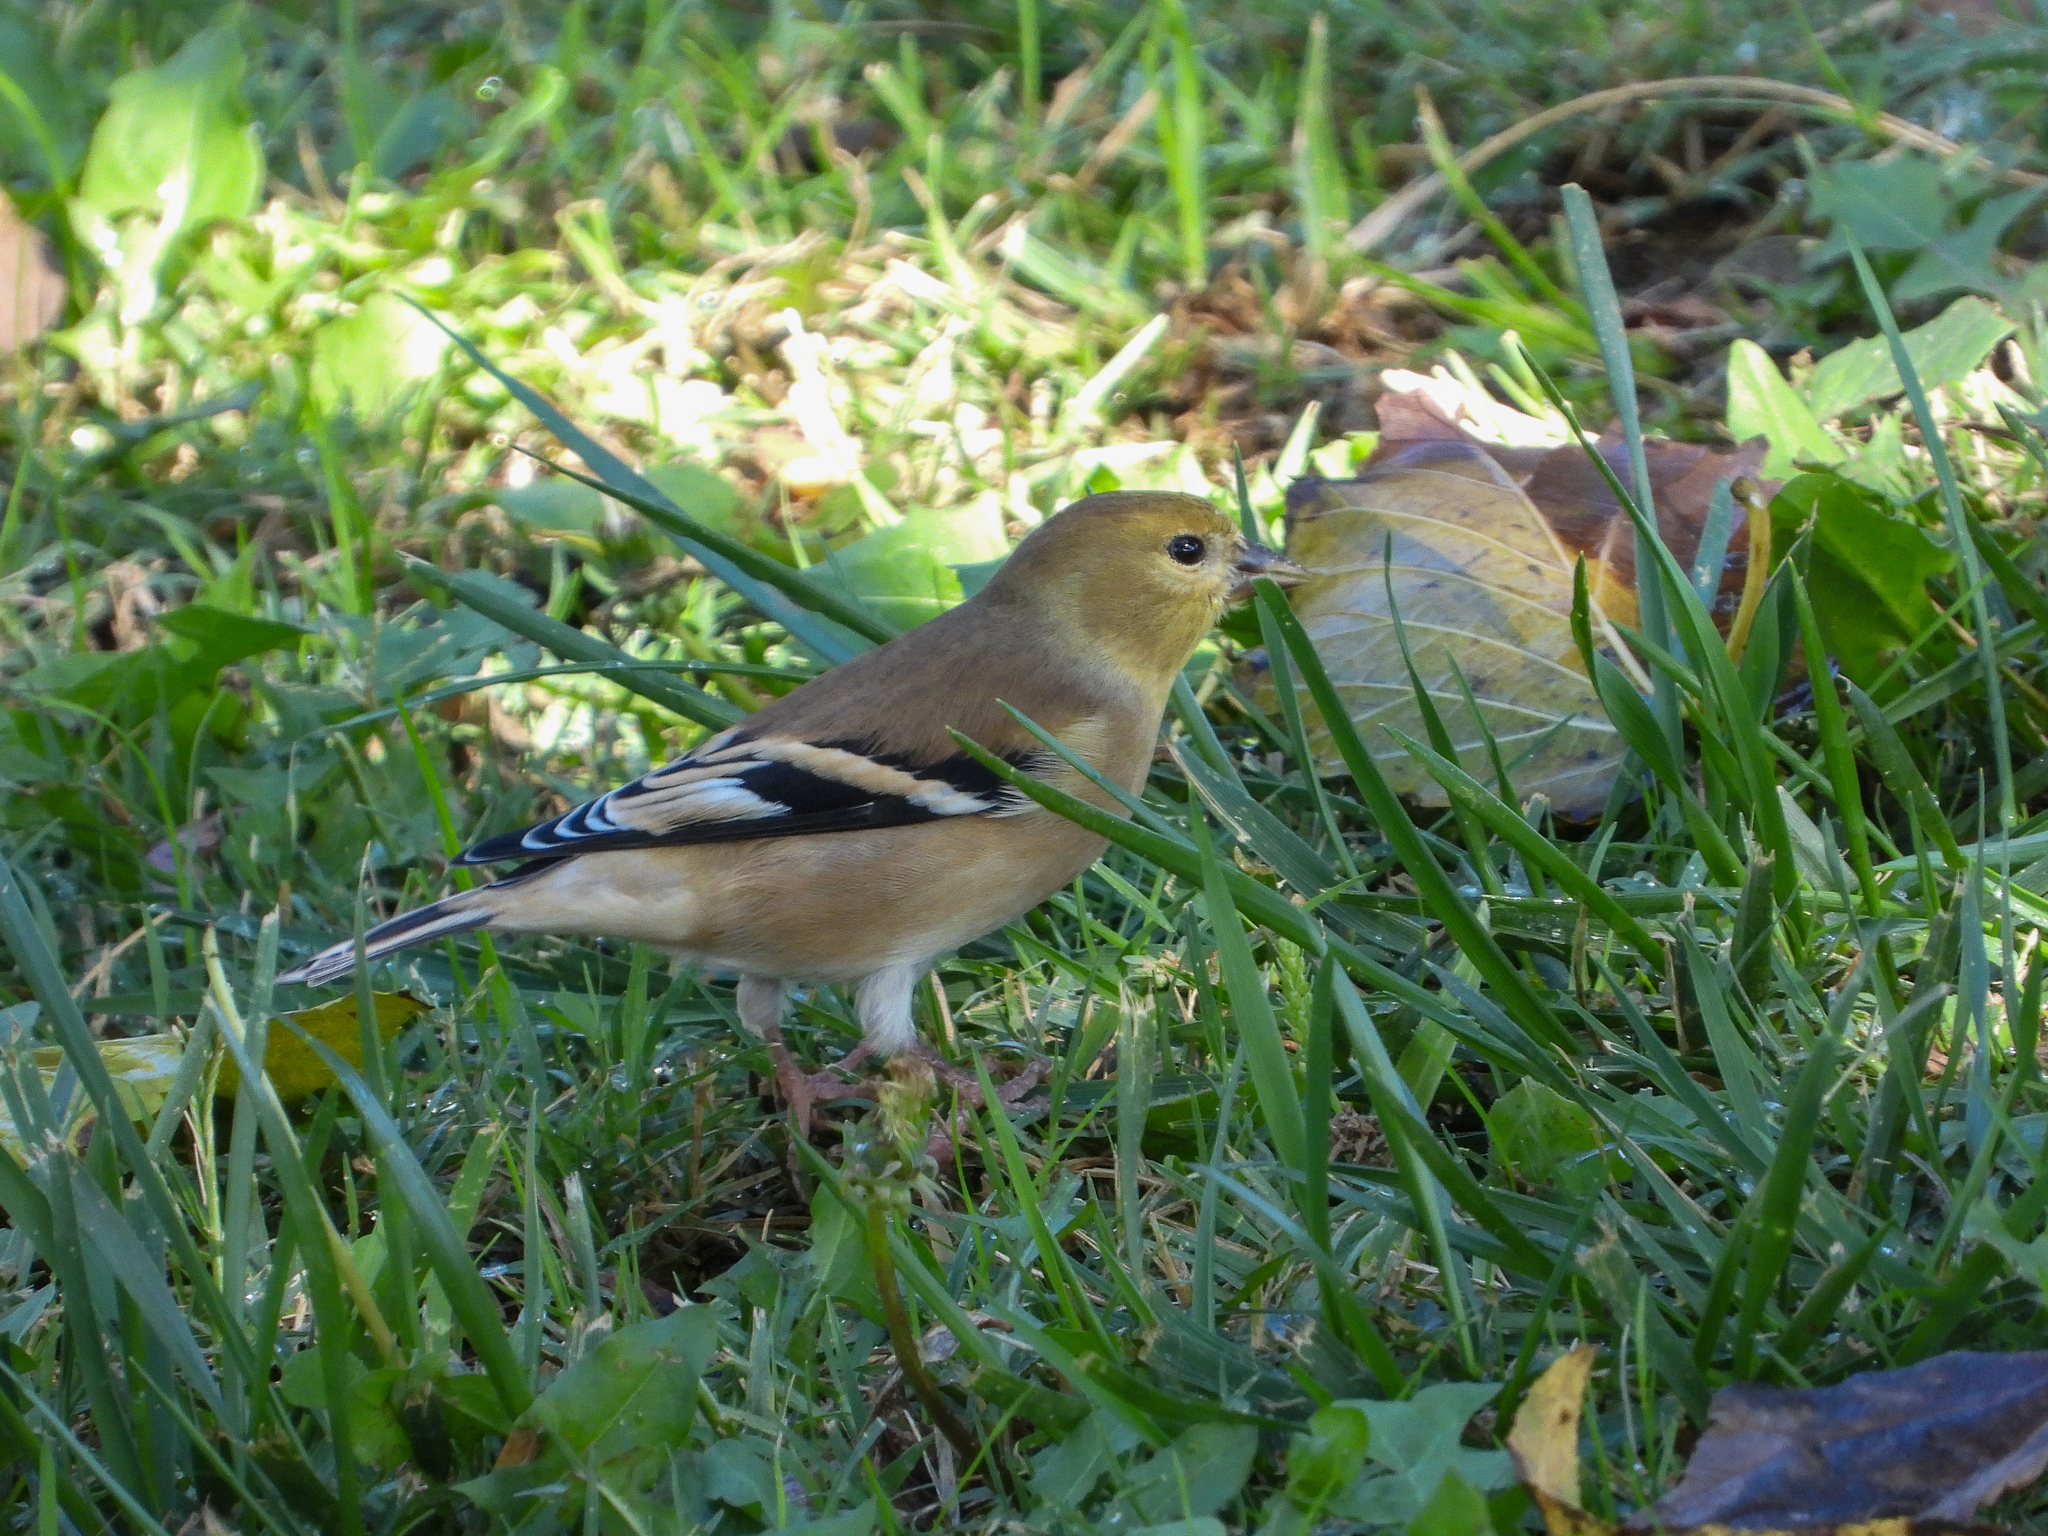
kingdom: Animalia
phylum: Chordata
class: Aves
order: Passeriformes
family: Fringillidae
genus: Spinus
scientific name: Spinus tristis
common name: American goldfinch
